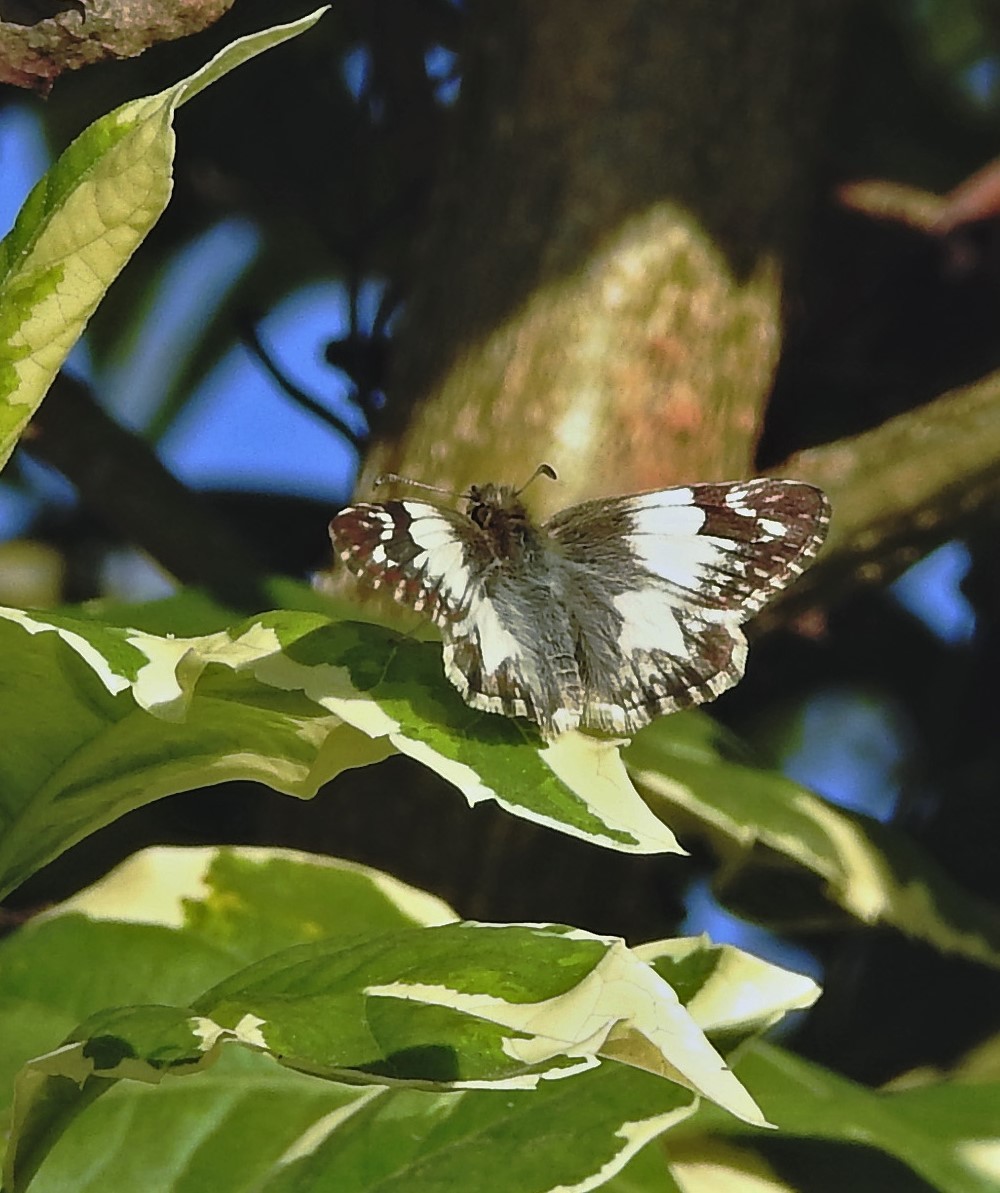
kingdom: Animalia
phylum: Arthropoda
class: Insecta
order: Lepidoptera
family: Hesperiidae
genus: Heliopetes
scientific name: Heliopetes omrina
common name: Stained white-skipper
